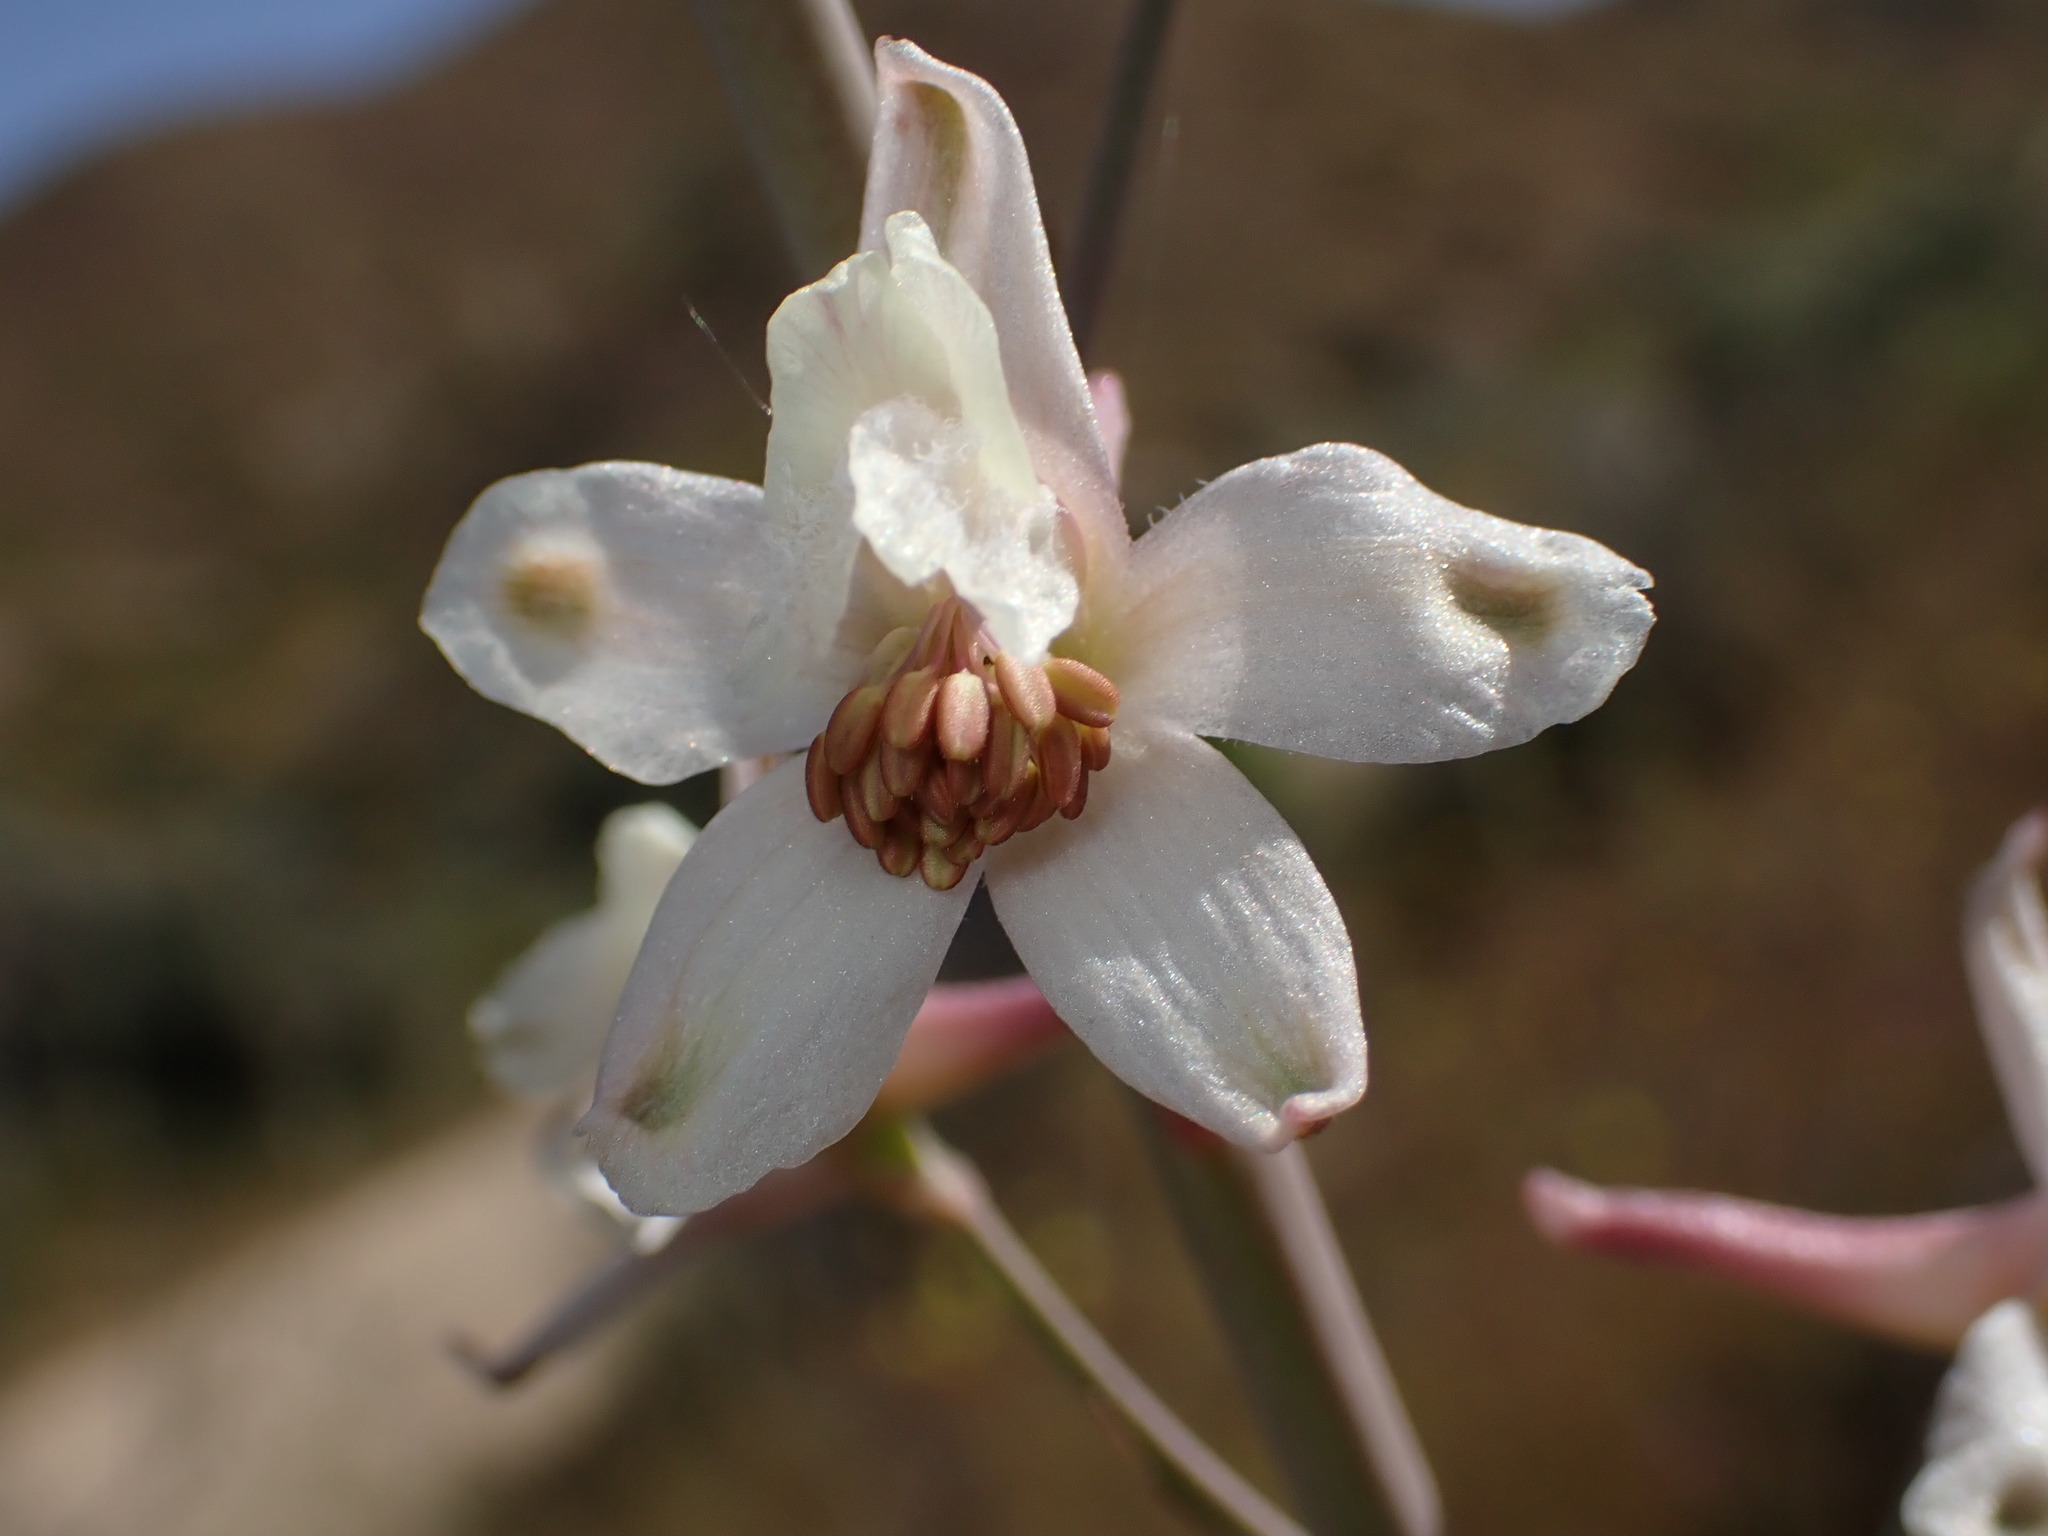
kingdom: Plantae
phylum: Tracheophyta
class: Magnoliopsida
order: Ranunculales
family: Ranunculaceae
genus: Delphinium
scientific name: Delphinium gypsophilum
